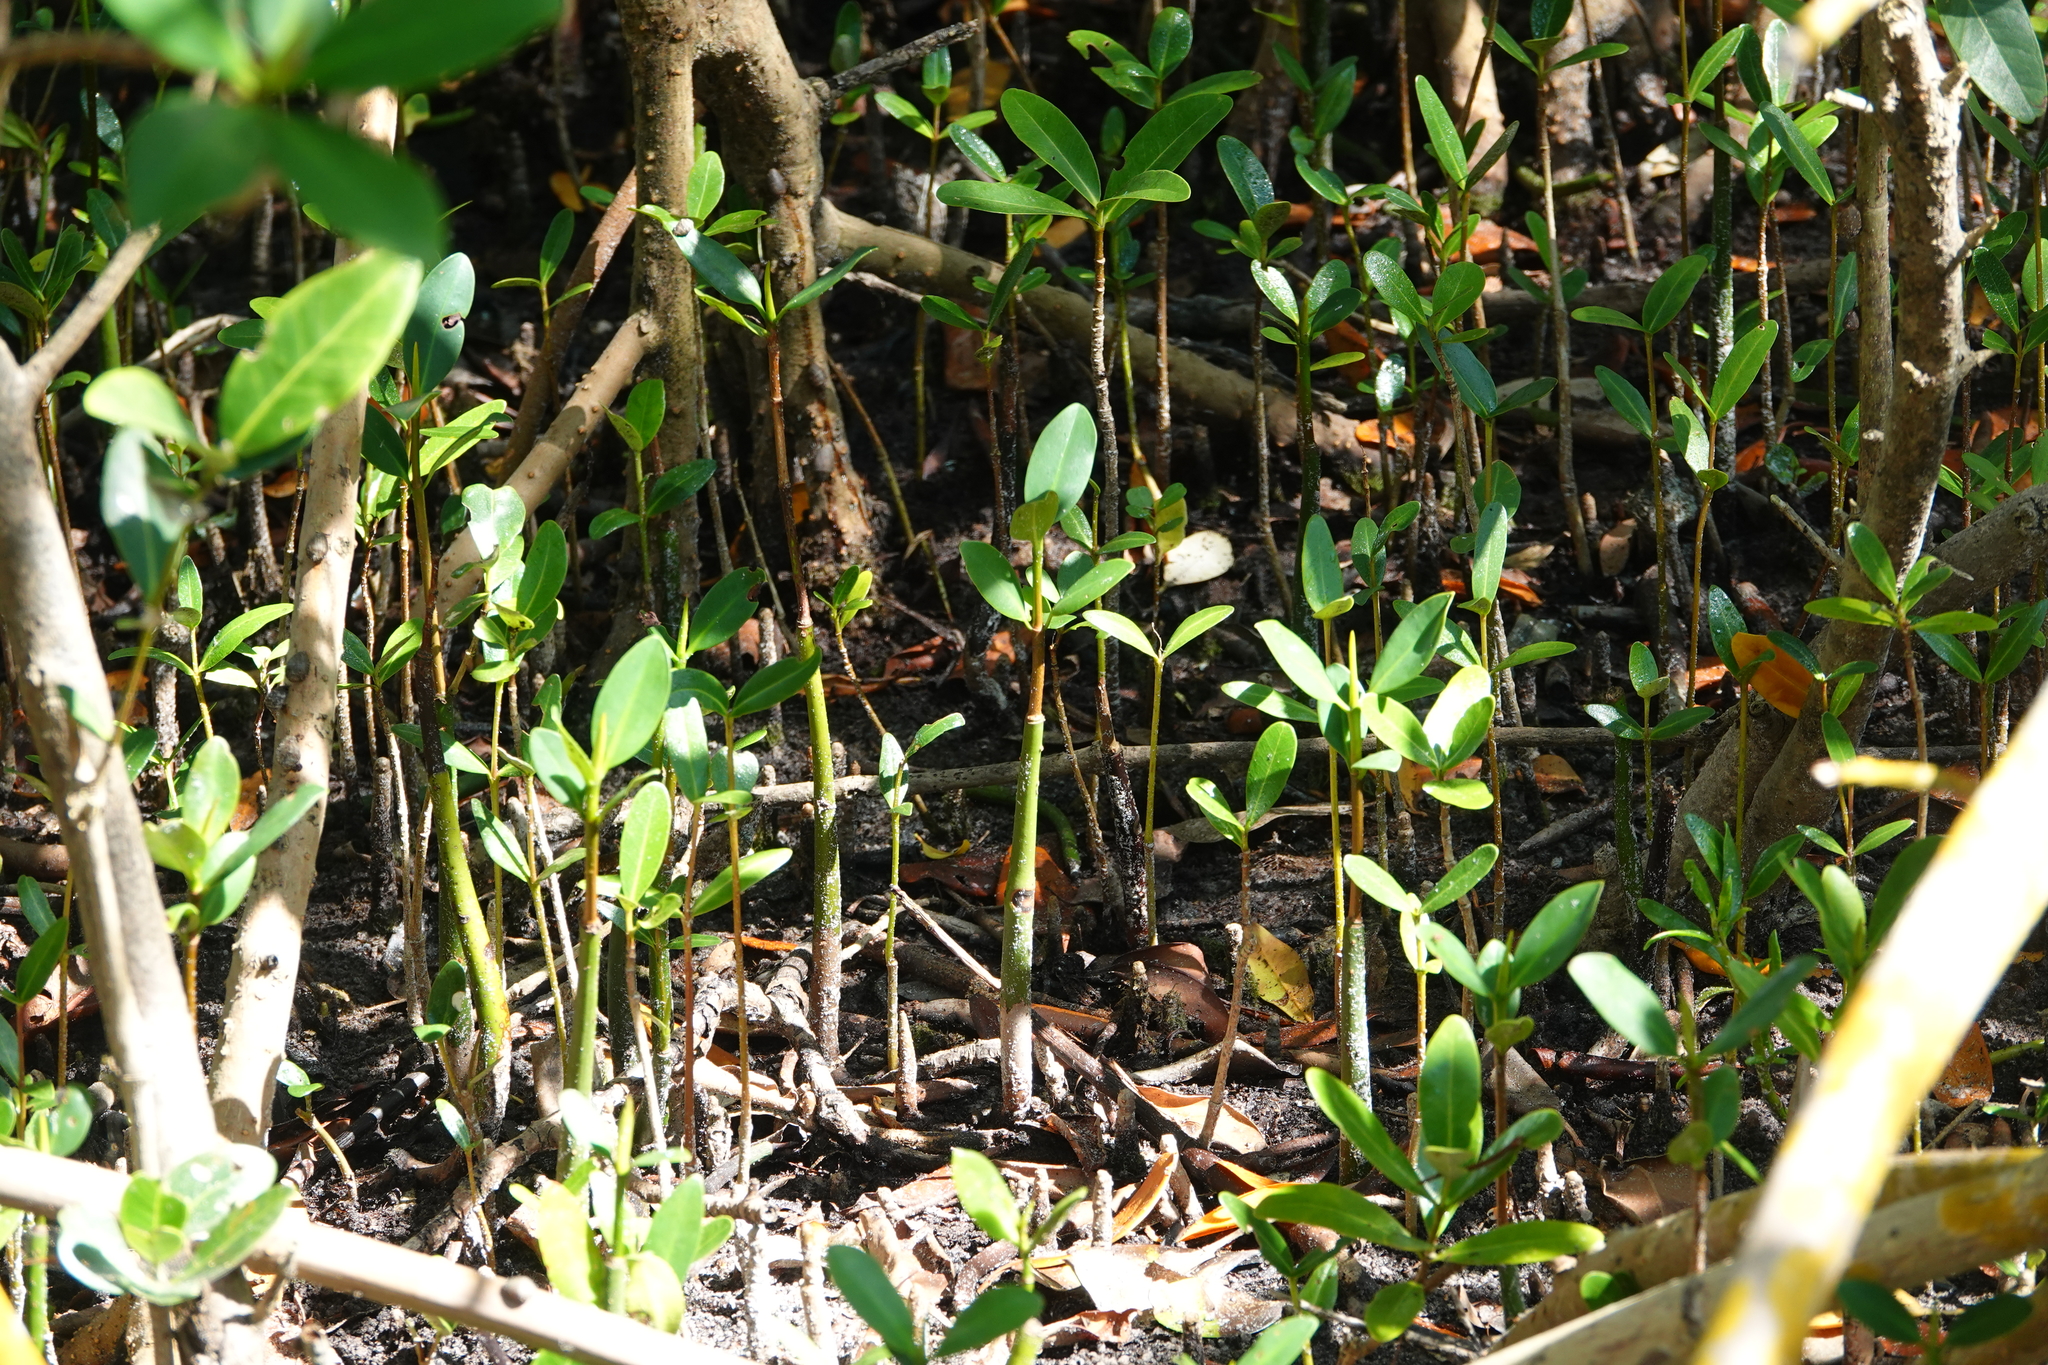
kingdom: Plantae
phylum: Tracheophyta
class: Magnoliopsida
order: Malpighiales
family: Rhizophoraceae
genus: Rhizophora
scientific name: Rhizophora mangle
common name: Red mangrove
